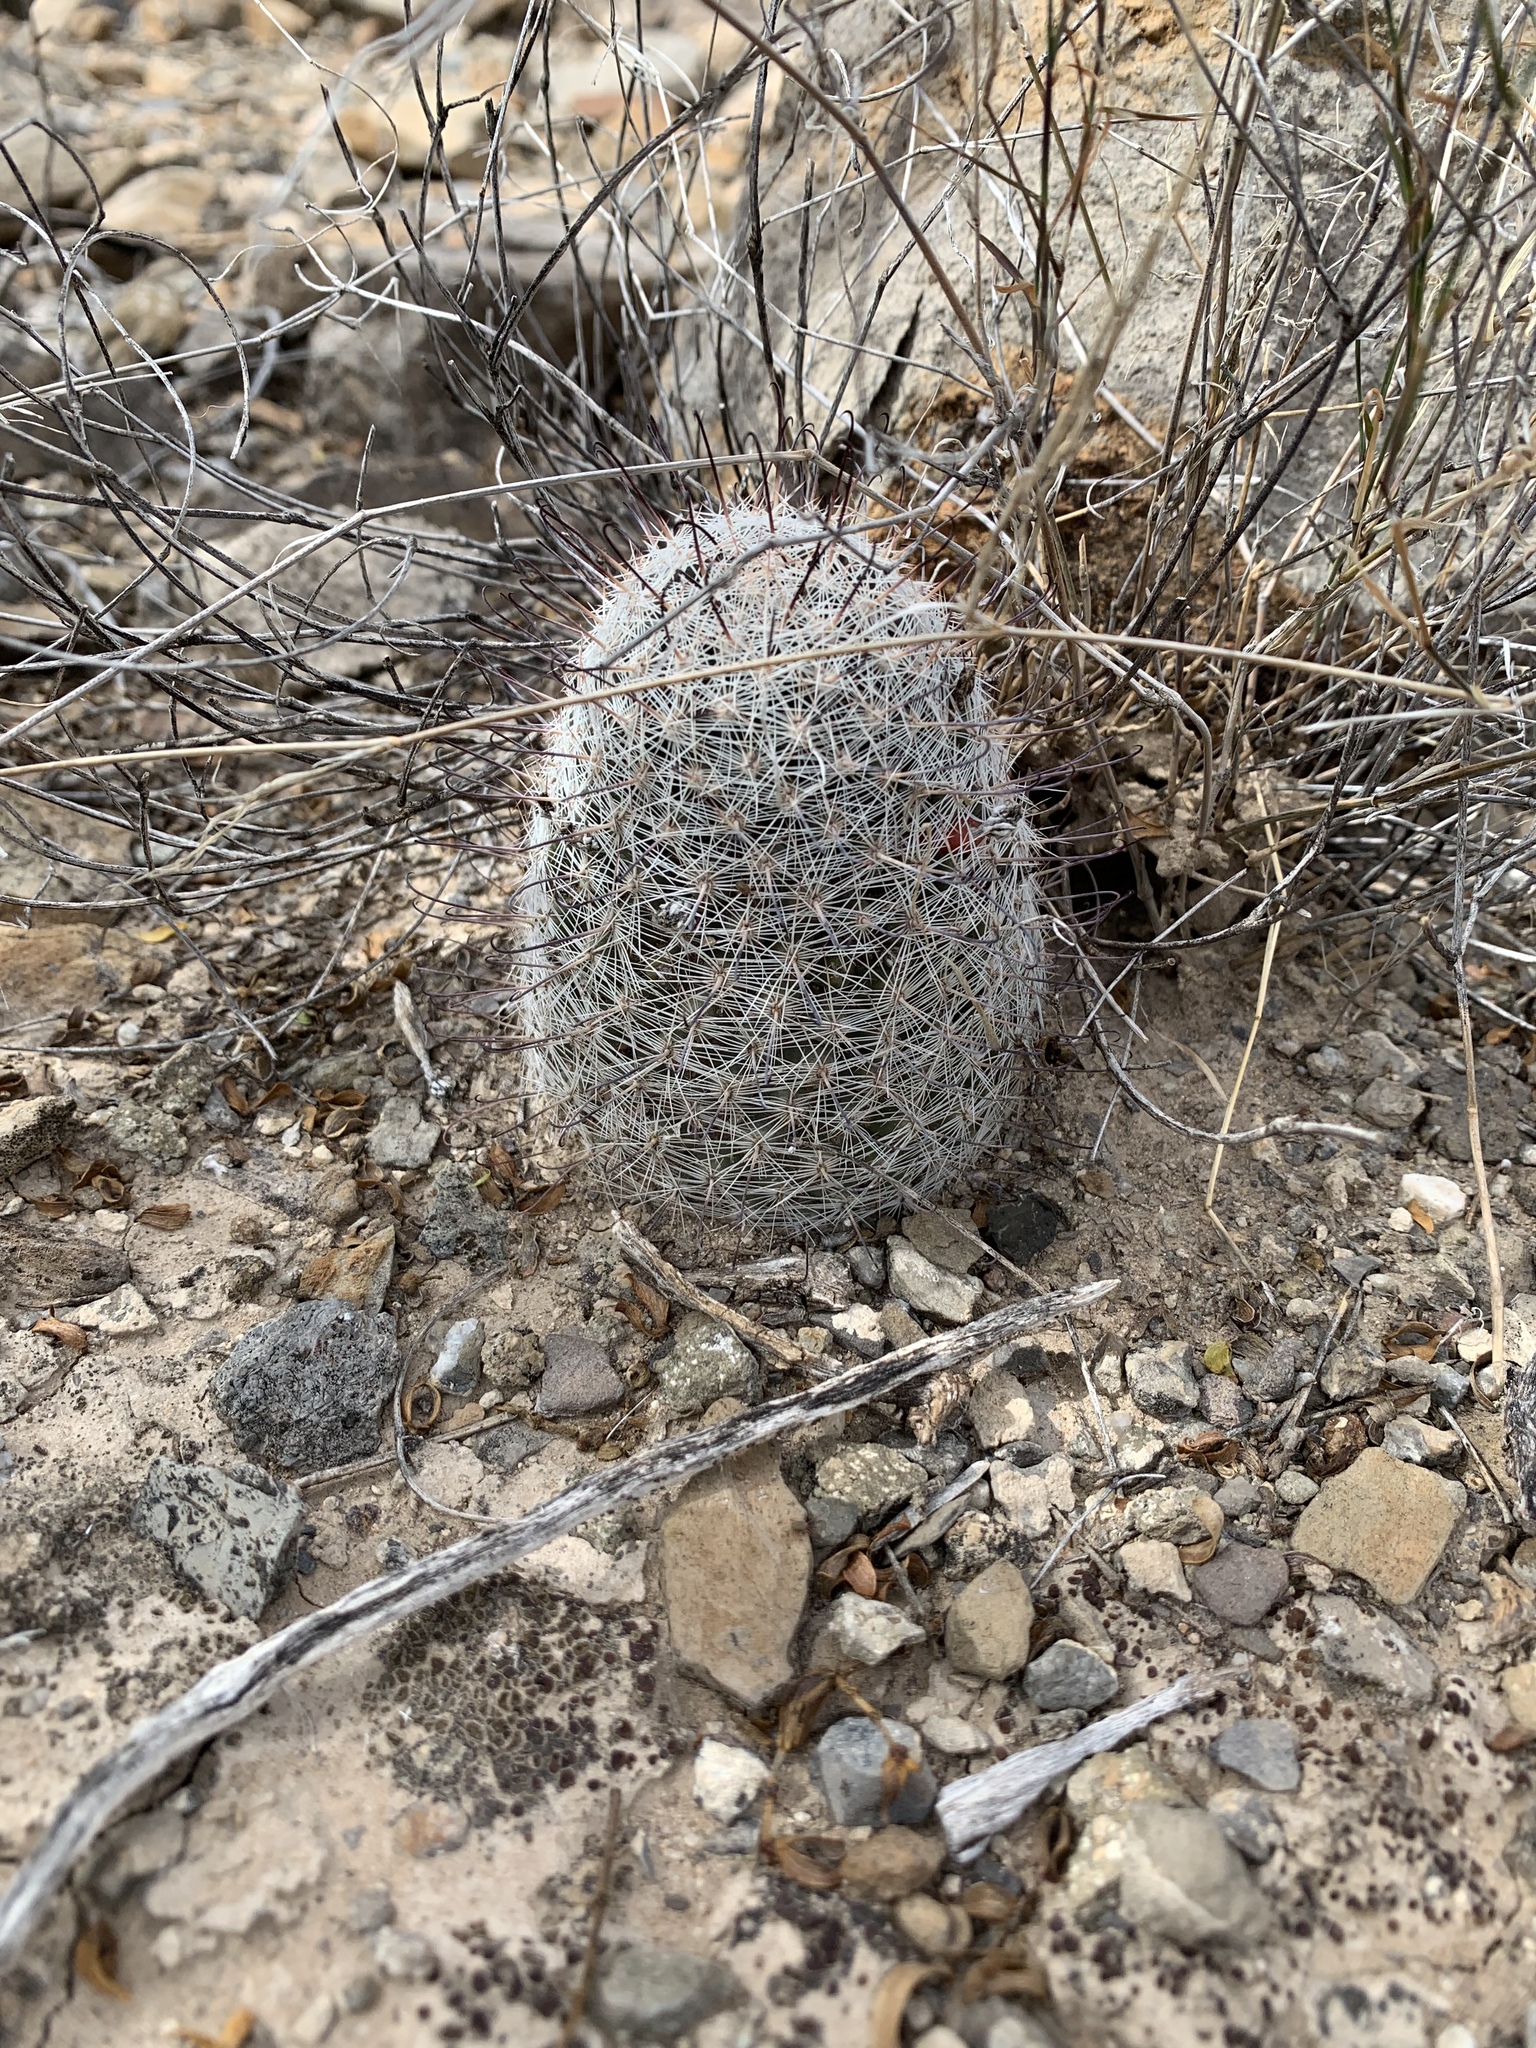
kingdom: Plantae
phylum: Tracheophyta
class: Magnoliopsida
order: Caryophyllales
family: Cactaceae
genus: Cochemiea
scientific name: Cochemiea grahamii
